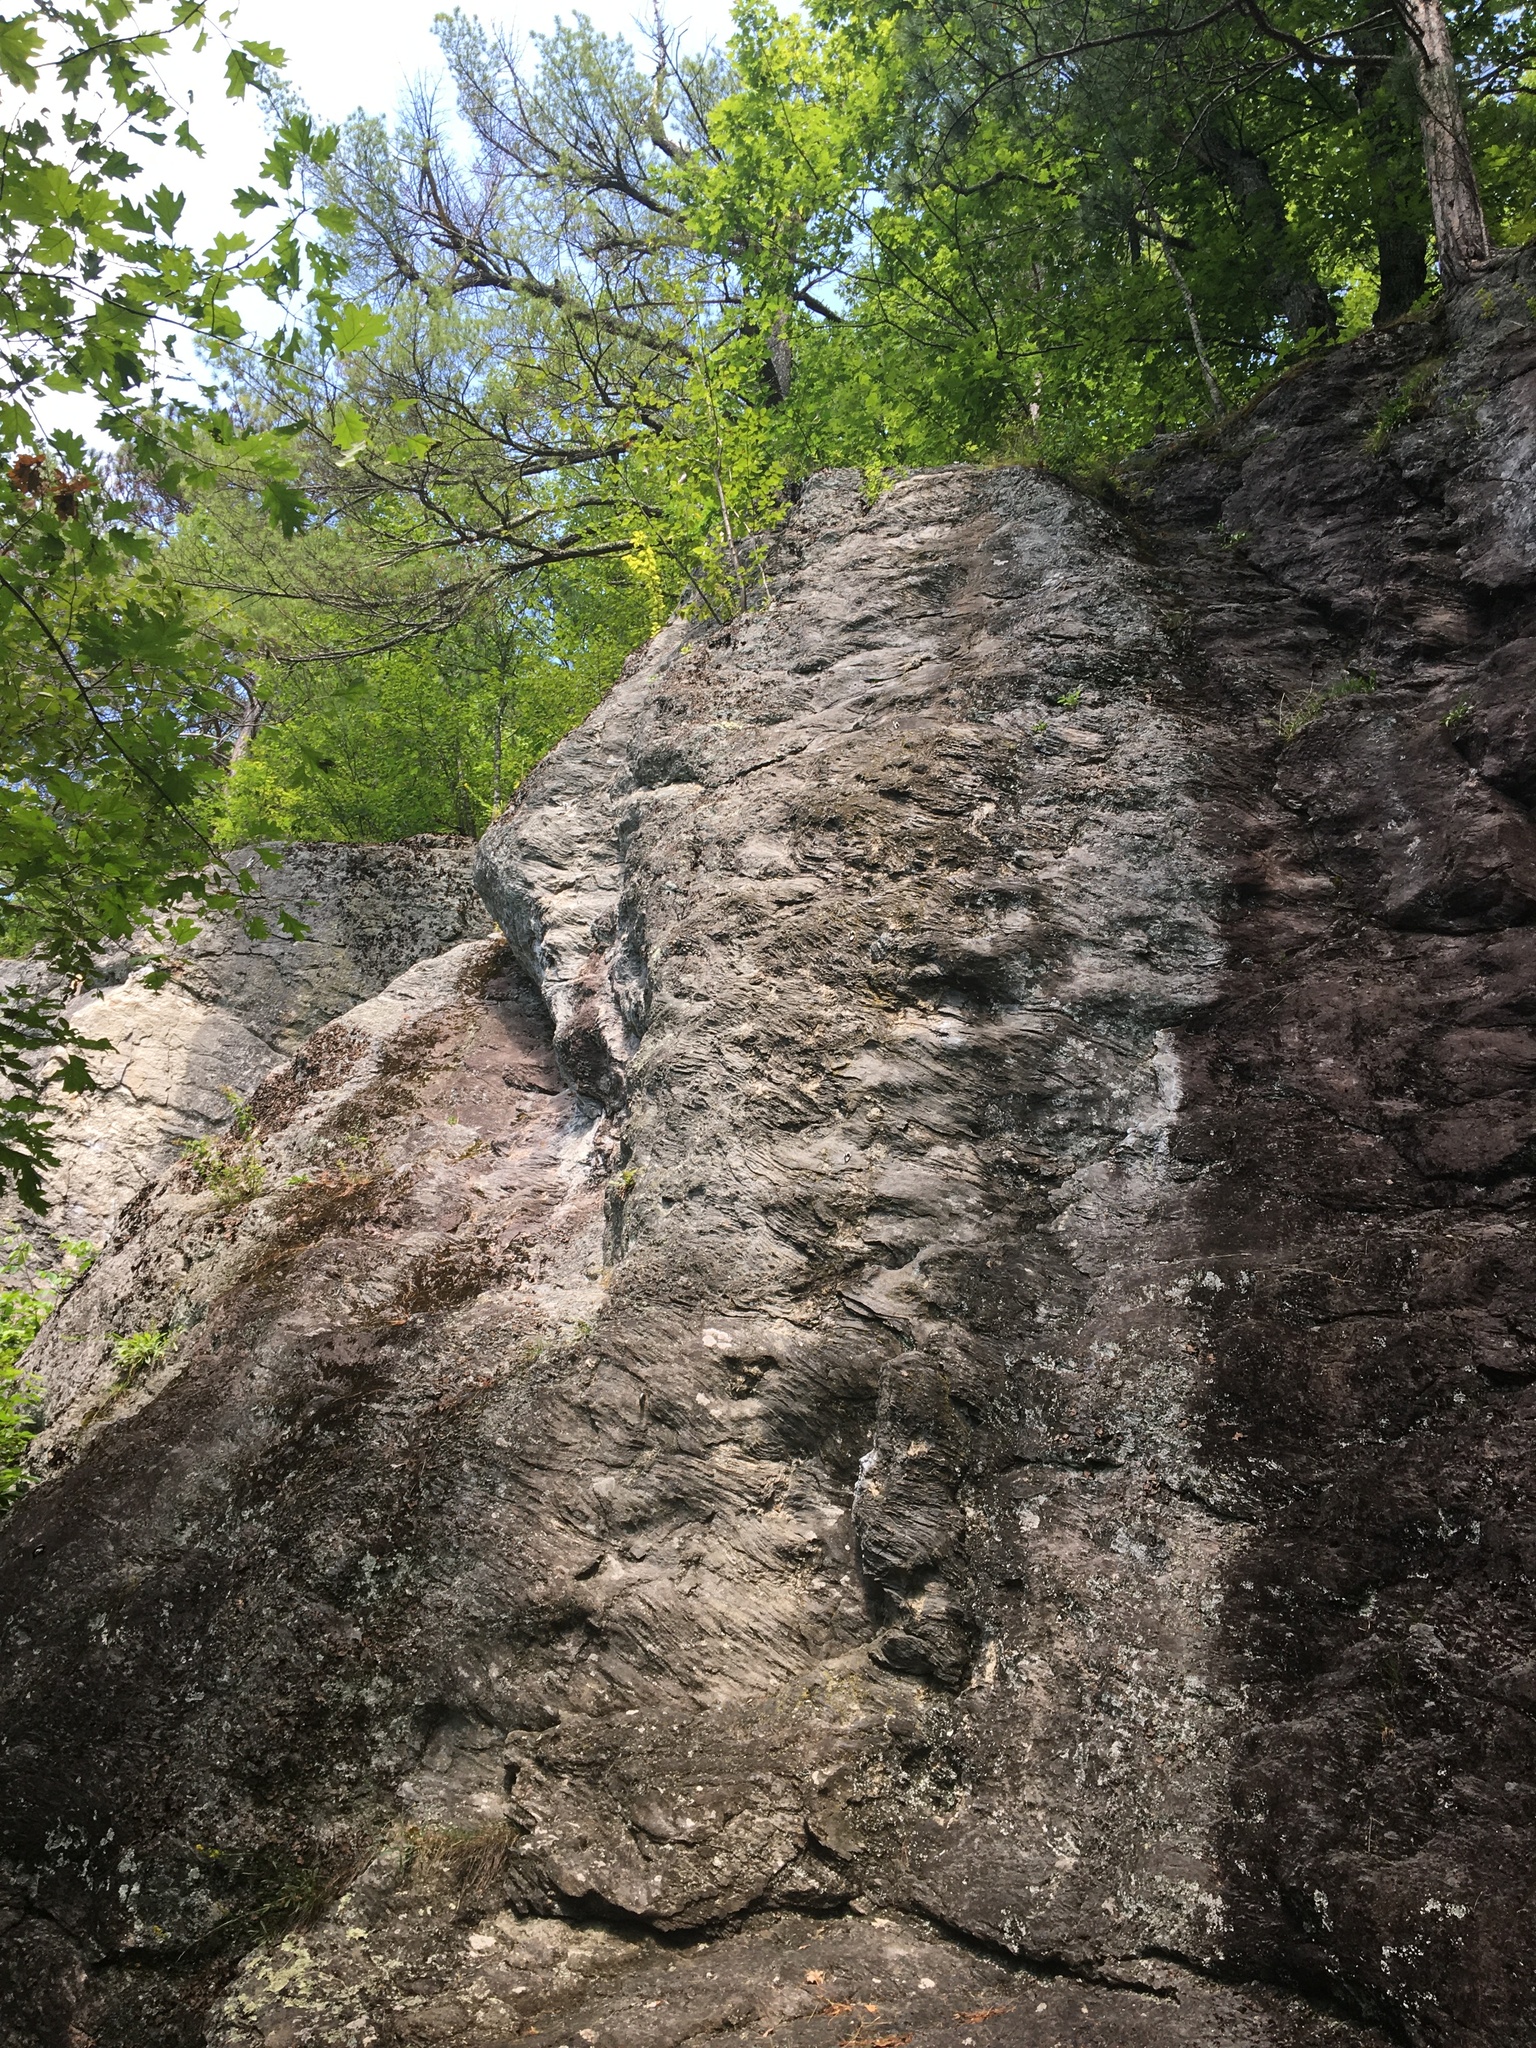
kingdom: Plantae
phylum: Tracheophyta
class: Polypodiopsida
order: Polypodiales
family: Dryopteridaceae
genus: Dryopteris
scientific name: Dryopteris fragrans
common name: Fragrant wood fern
